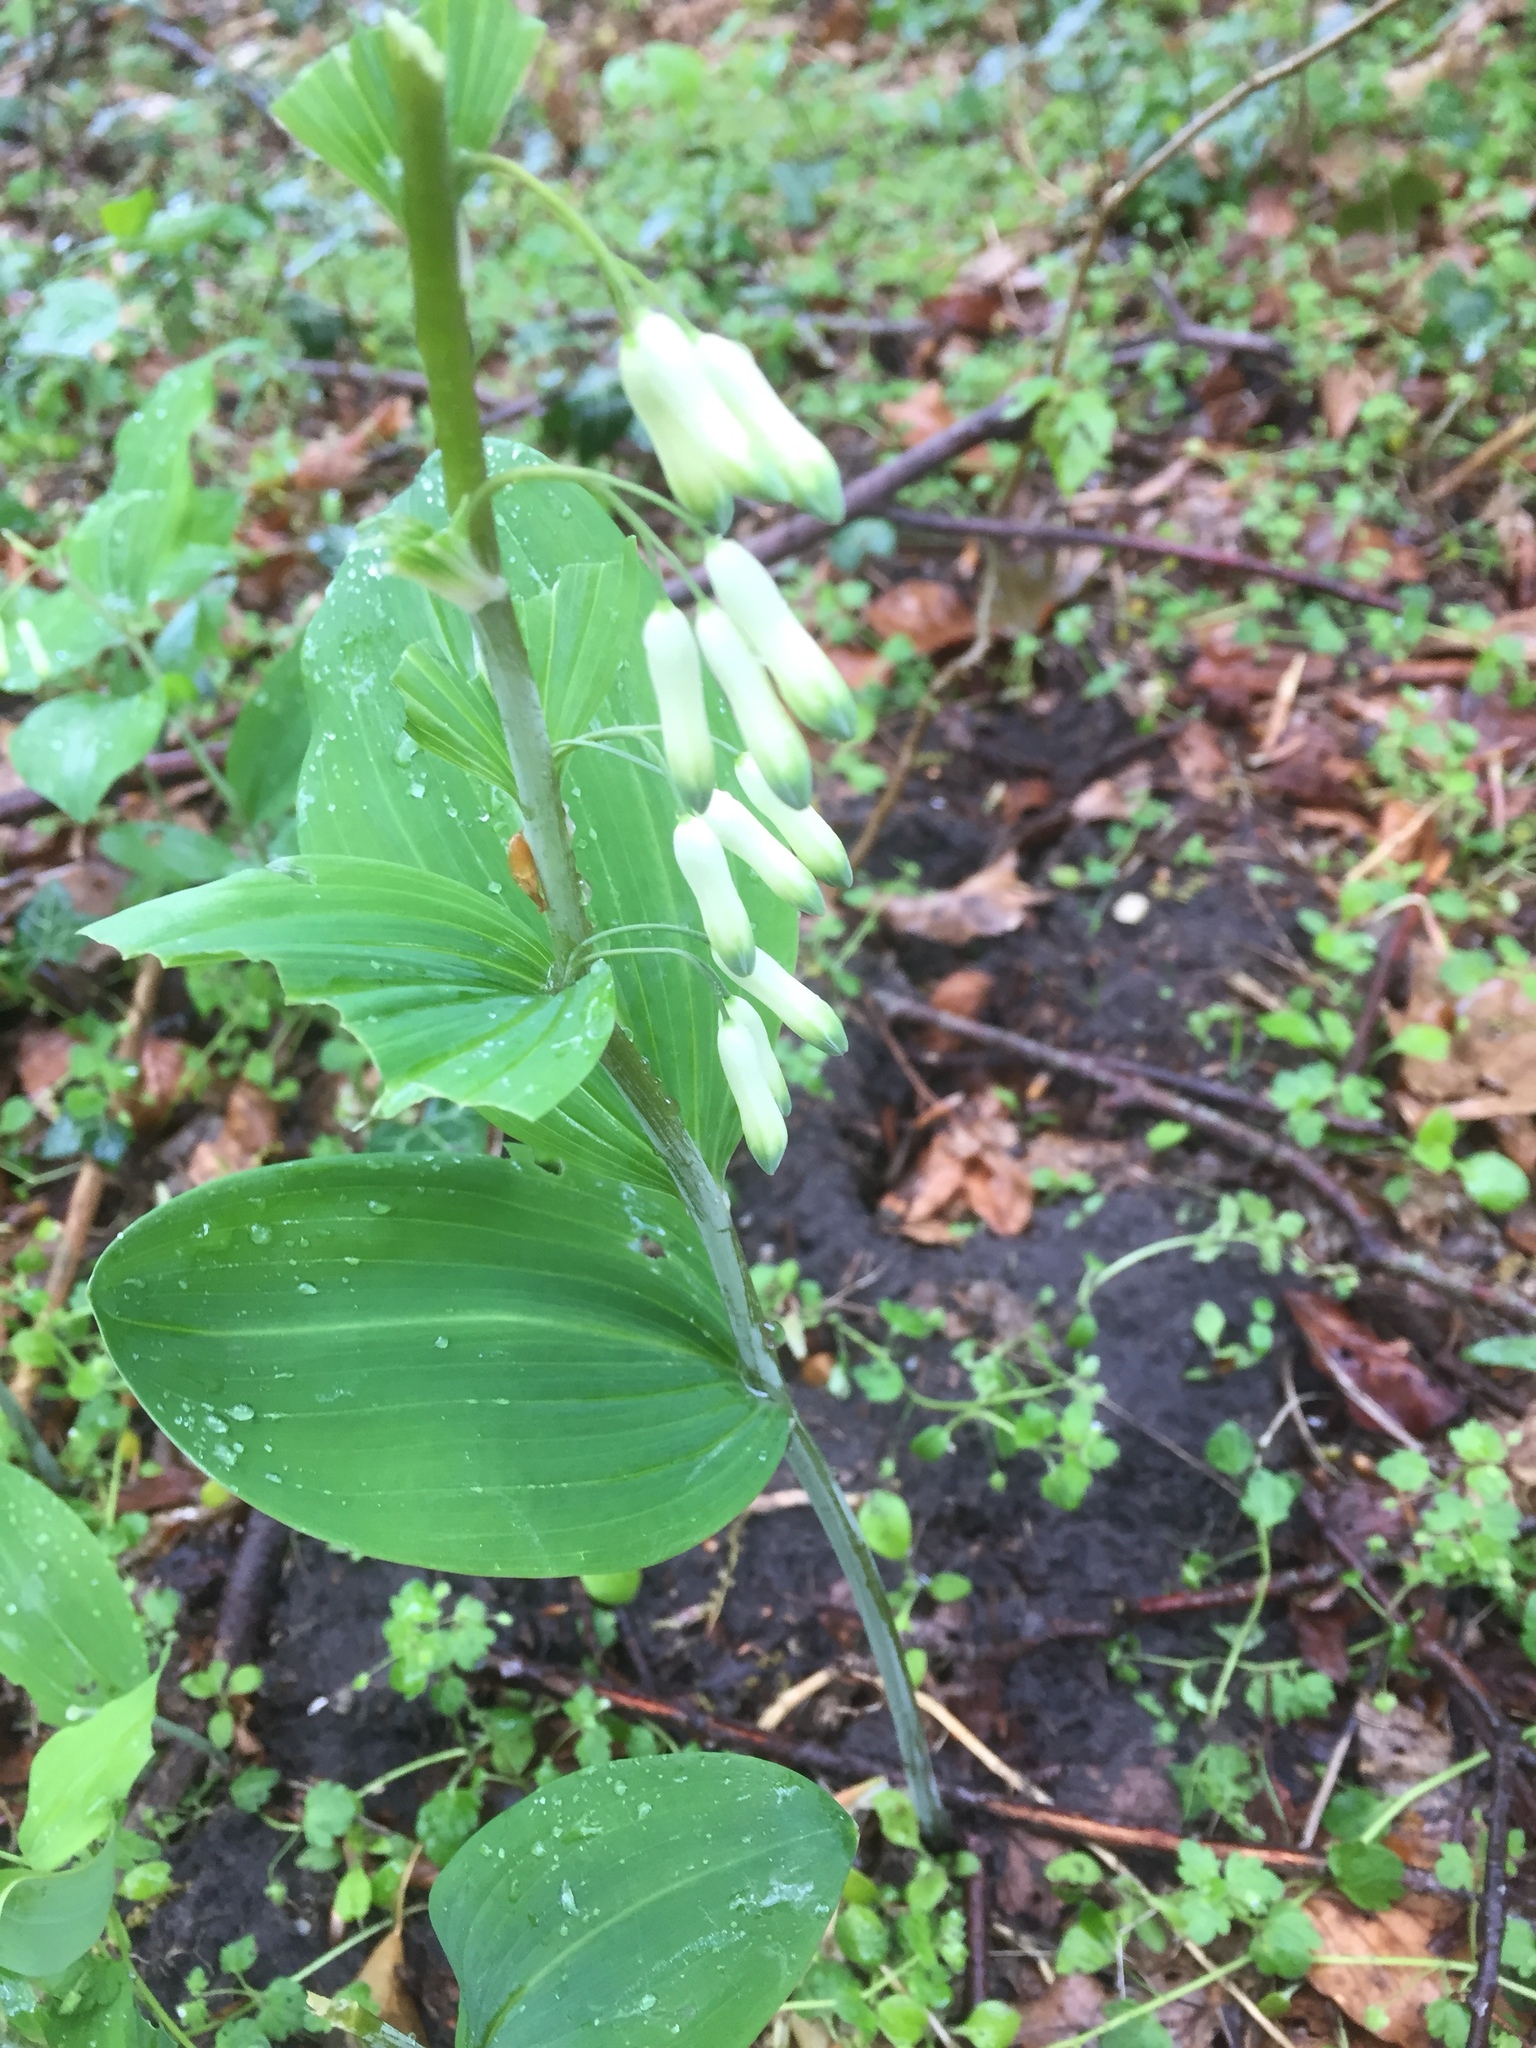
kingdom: Plantae
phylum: Tracheophyta
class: Liliopsida
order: Asparagales
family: Asparagaceae
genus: Polygonatum
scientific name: Polygonatum multiflorum
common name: Solomon's-seal
